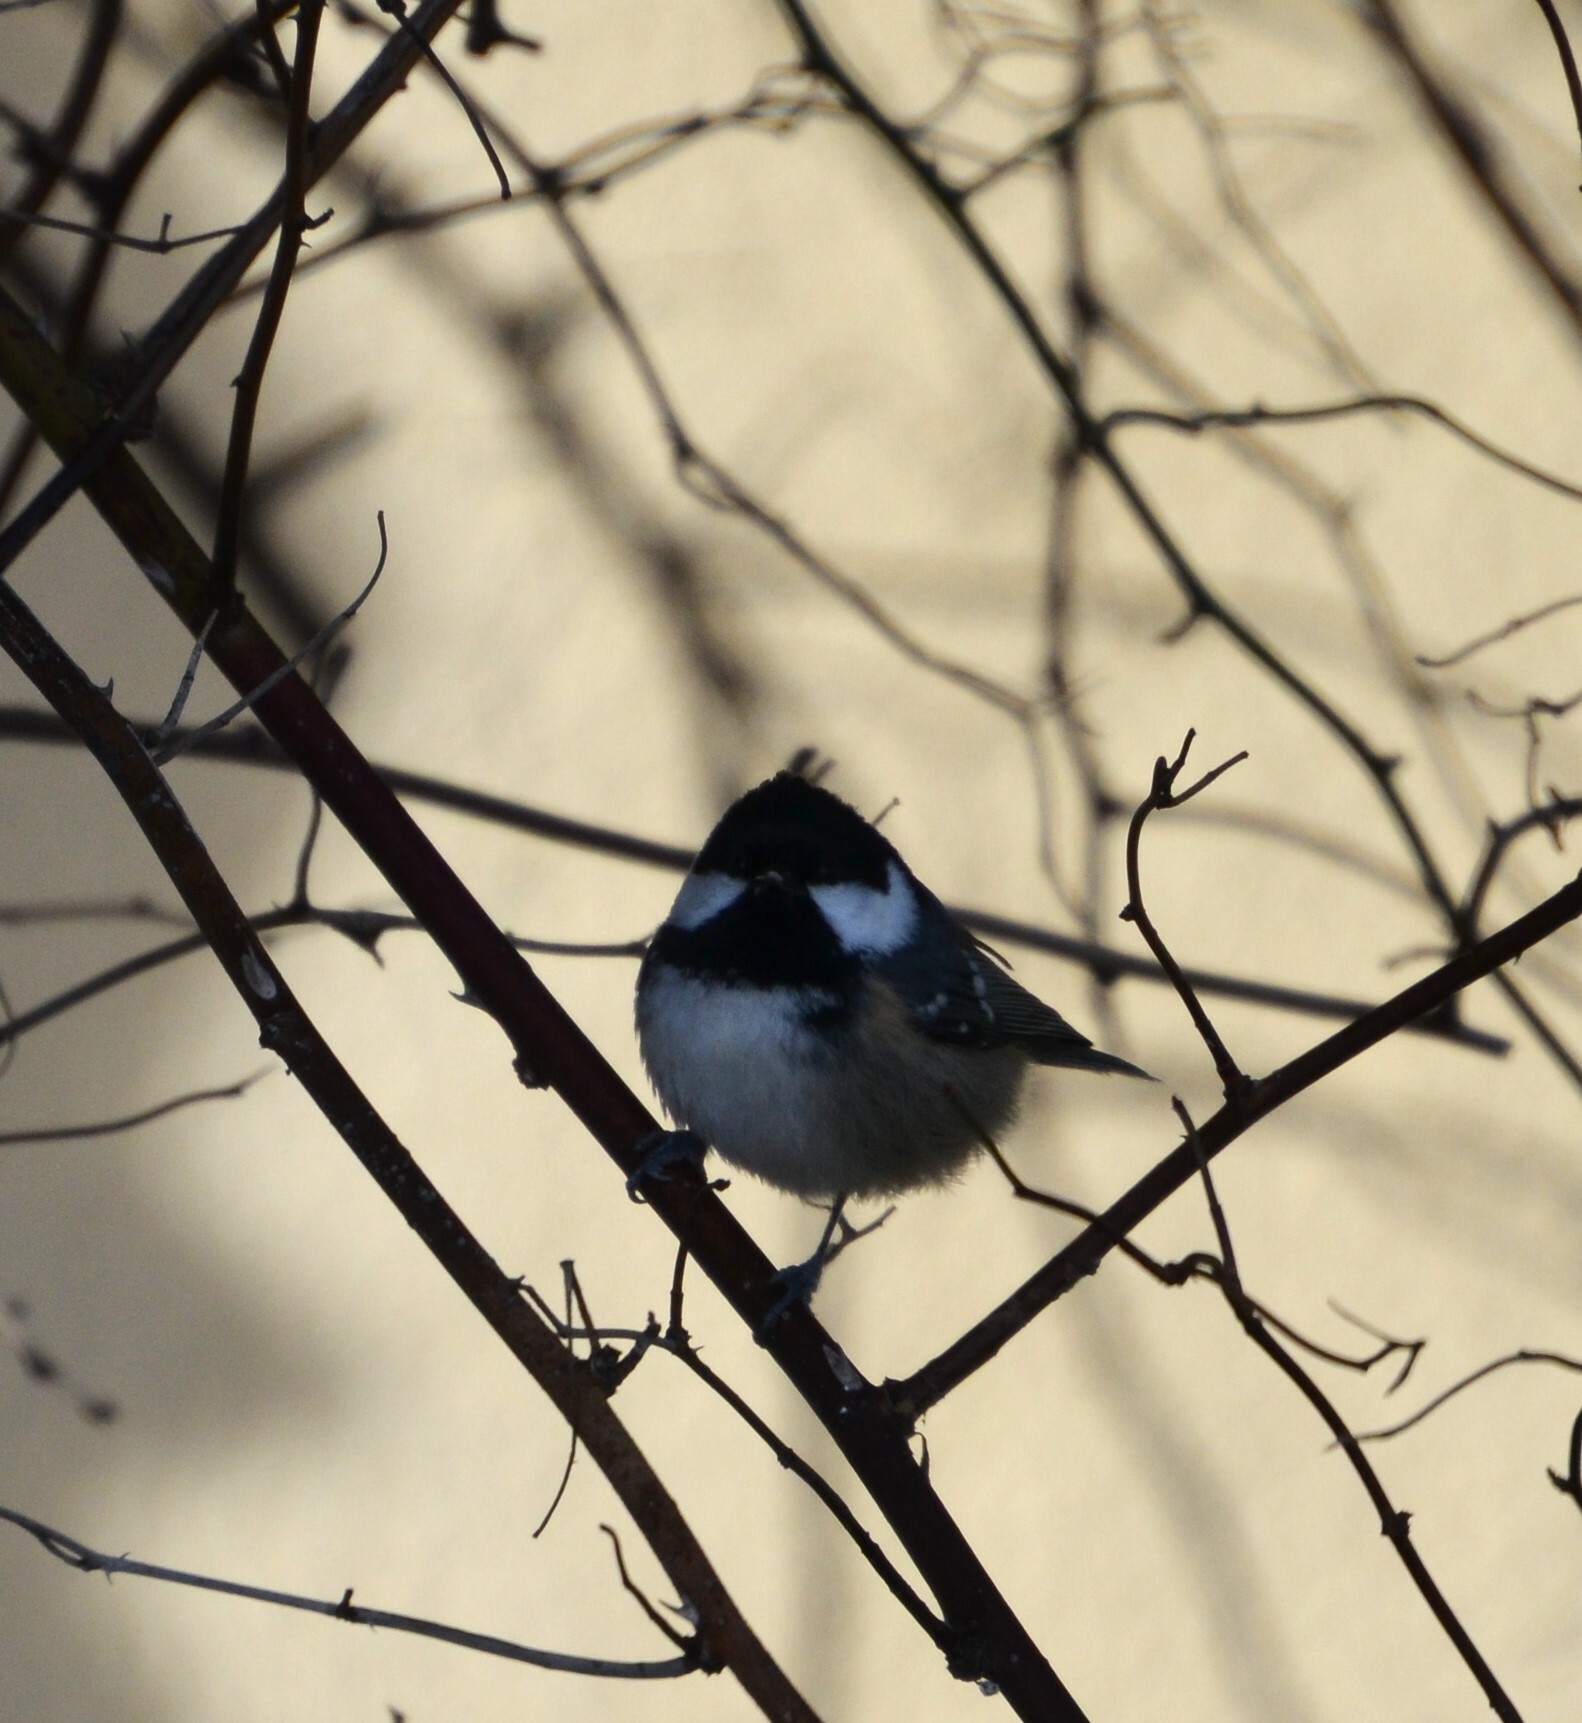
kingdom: Animalia
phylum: Chordata
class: Aves
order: Passeriformes
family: Paridae
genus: Periparus
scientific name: Periparus ater
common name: Coal tit
